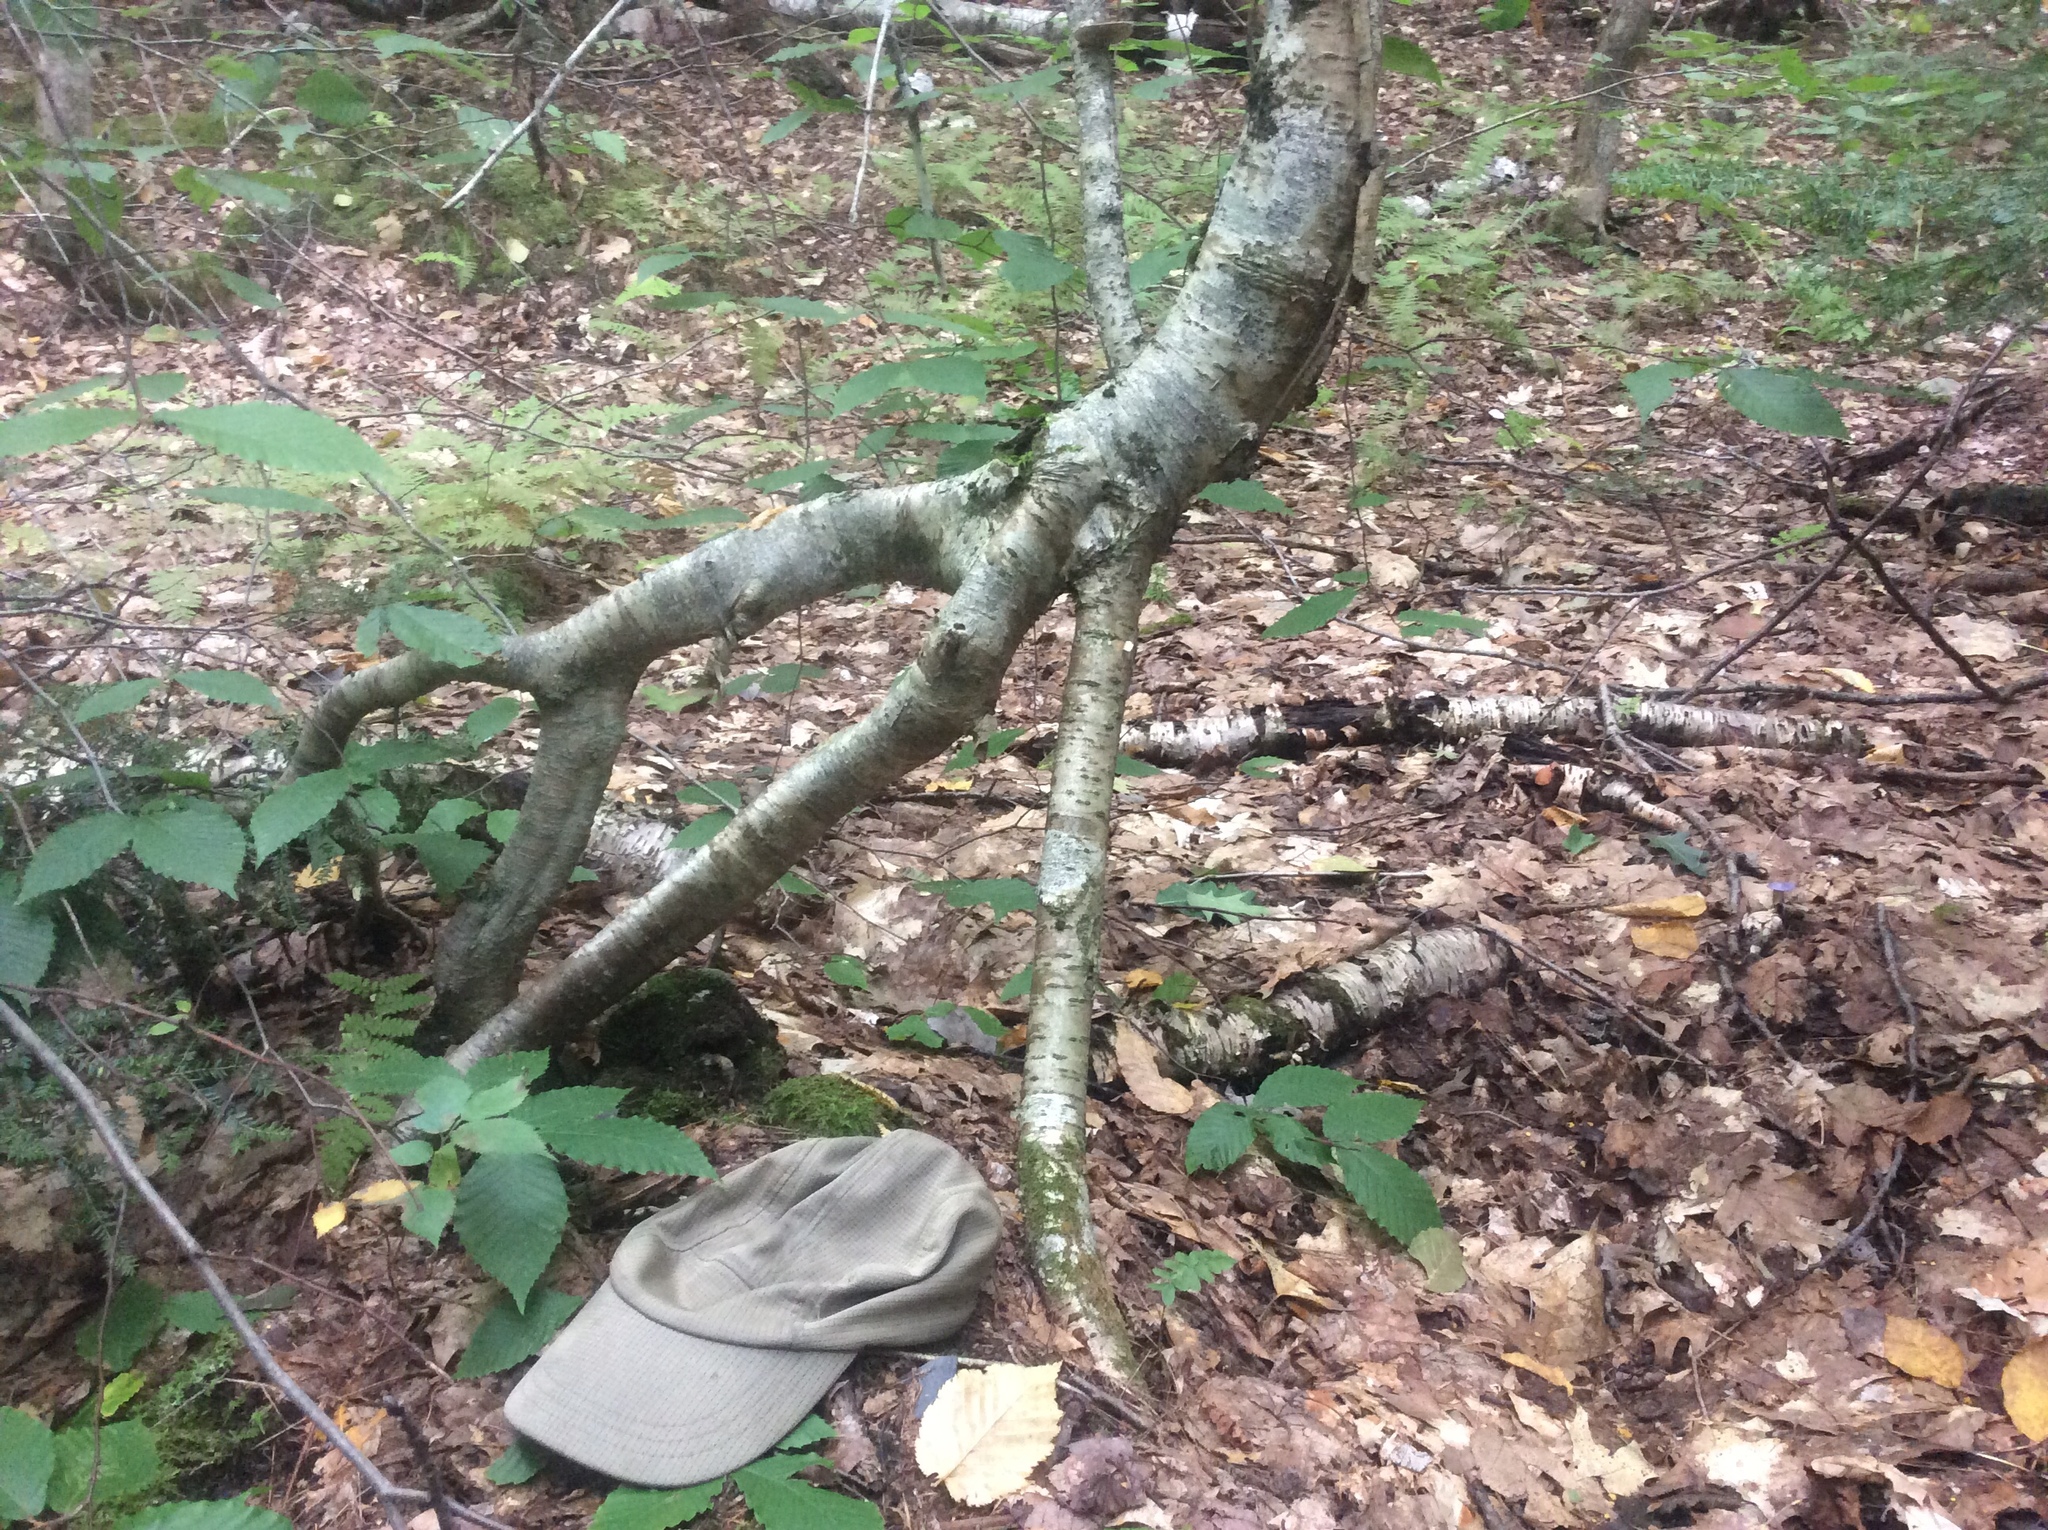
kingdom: Plantae
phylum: Tracheophyta
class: Magnoliopsida
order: Fagales
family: Betulaceae
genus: Betula
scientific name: Betula alleghaniensis
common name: Yellow birch
